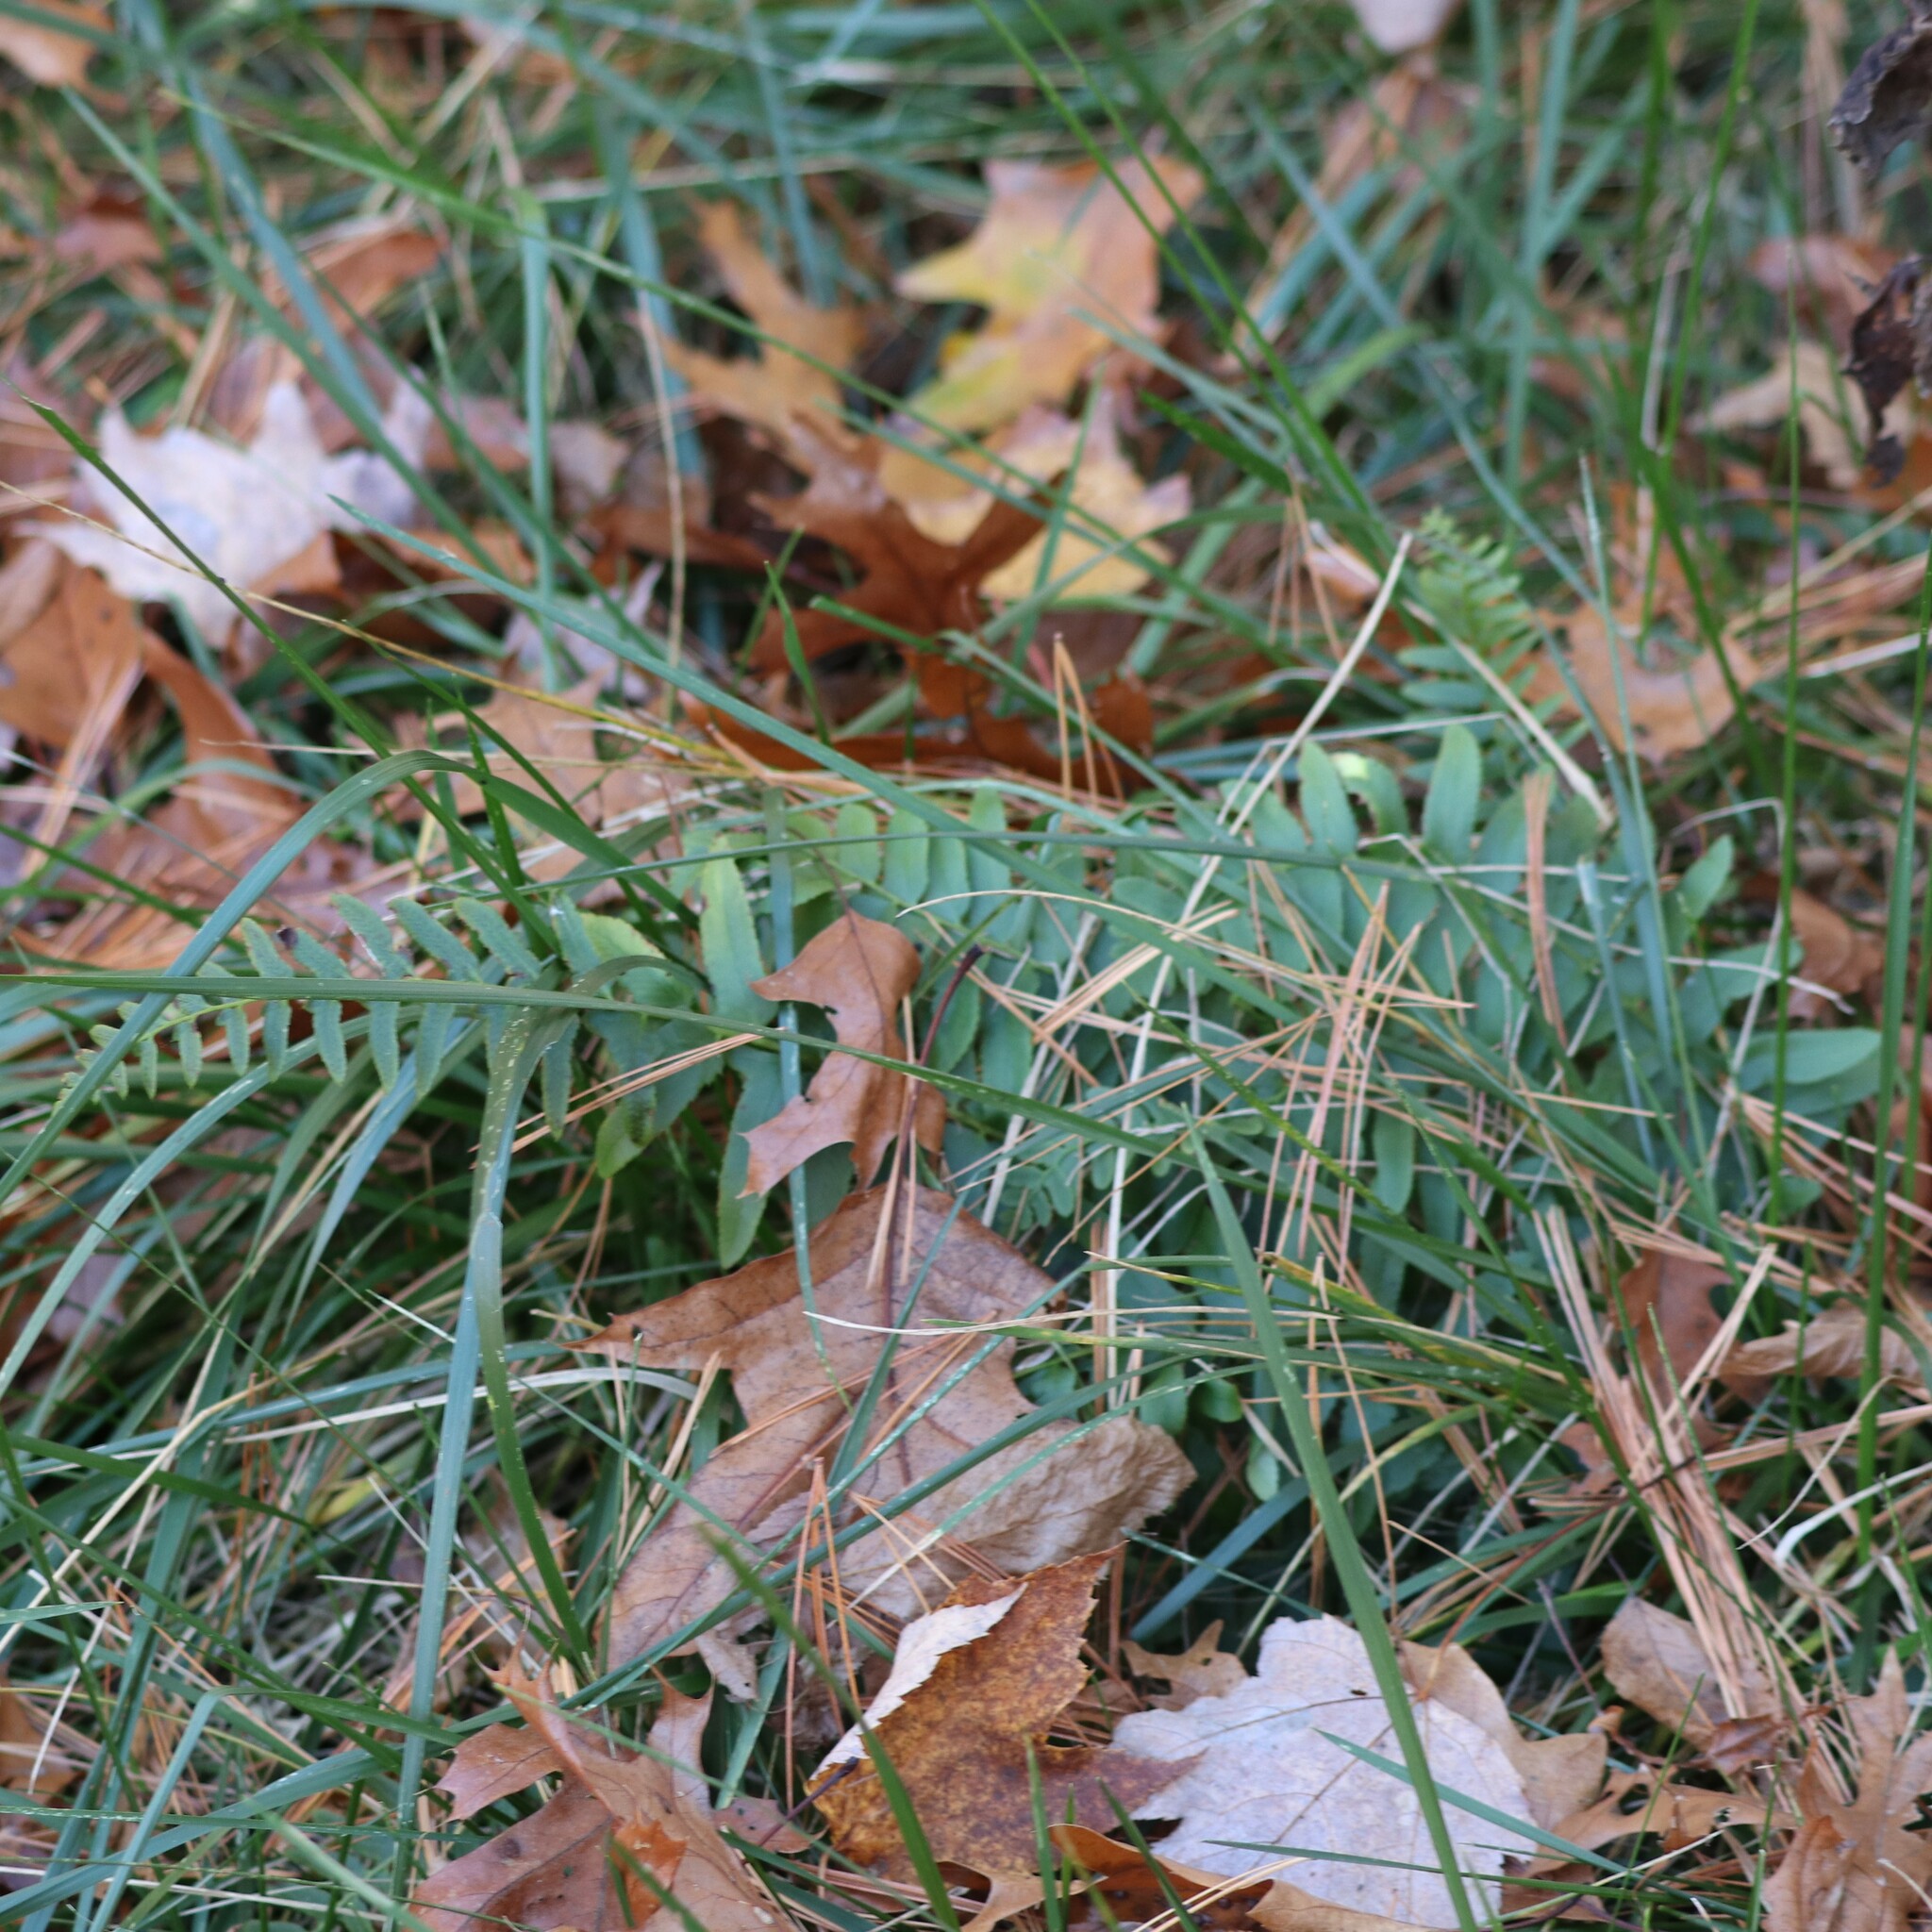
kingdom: Plantae
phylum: Tracheophyta
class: Polypodiopsida
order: Polypodiales
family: Dryopteridaceae
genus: Polystichum
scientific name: Polystichum acrostichoides
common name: Christmas fern
